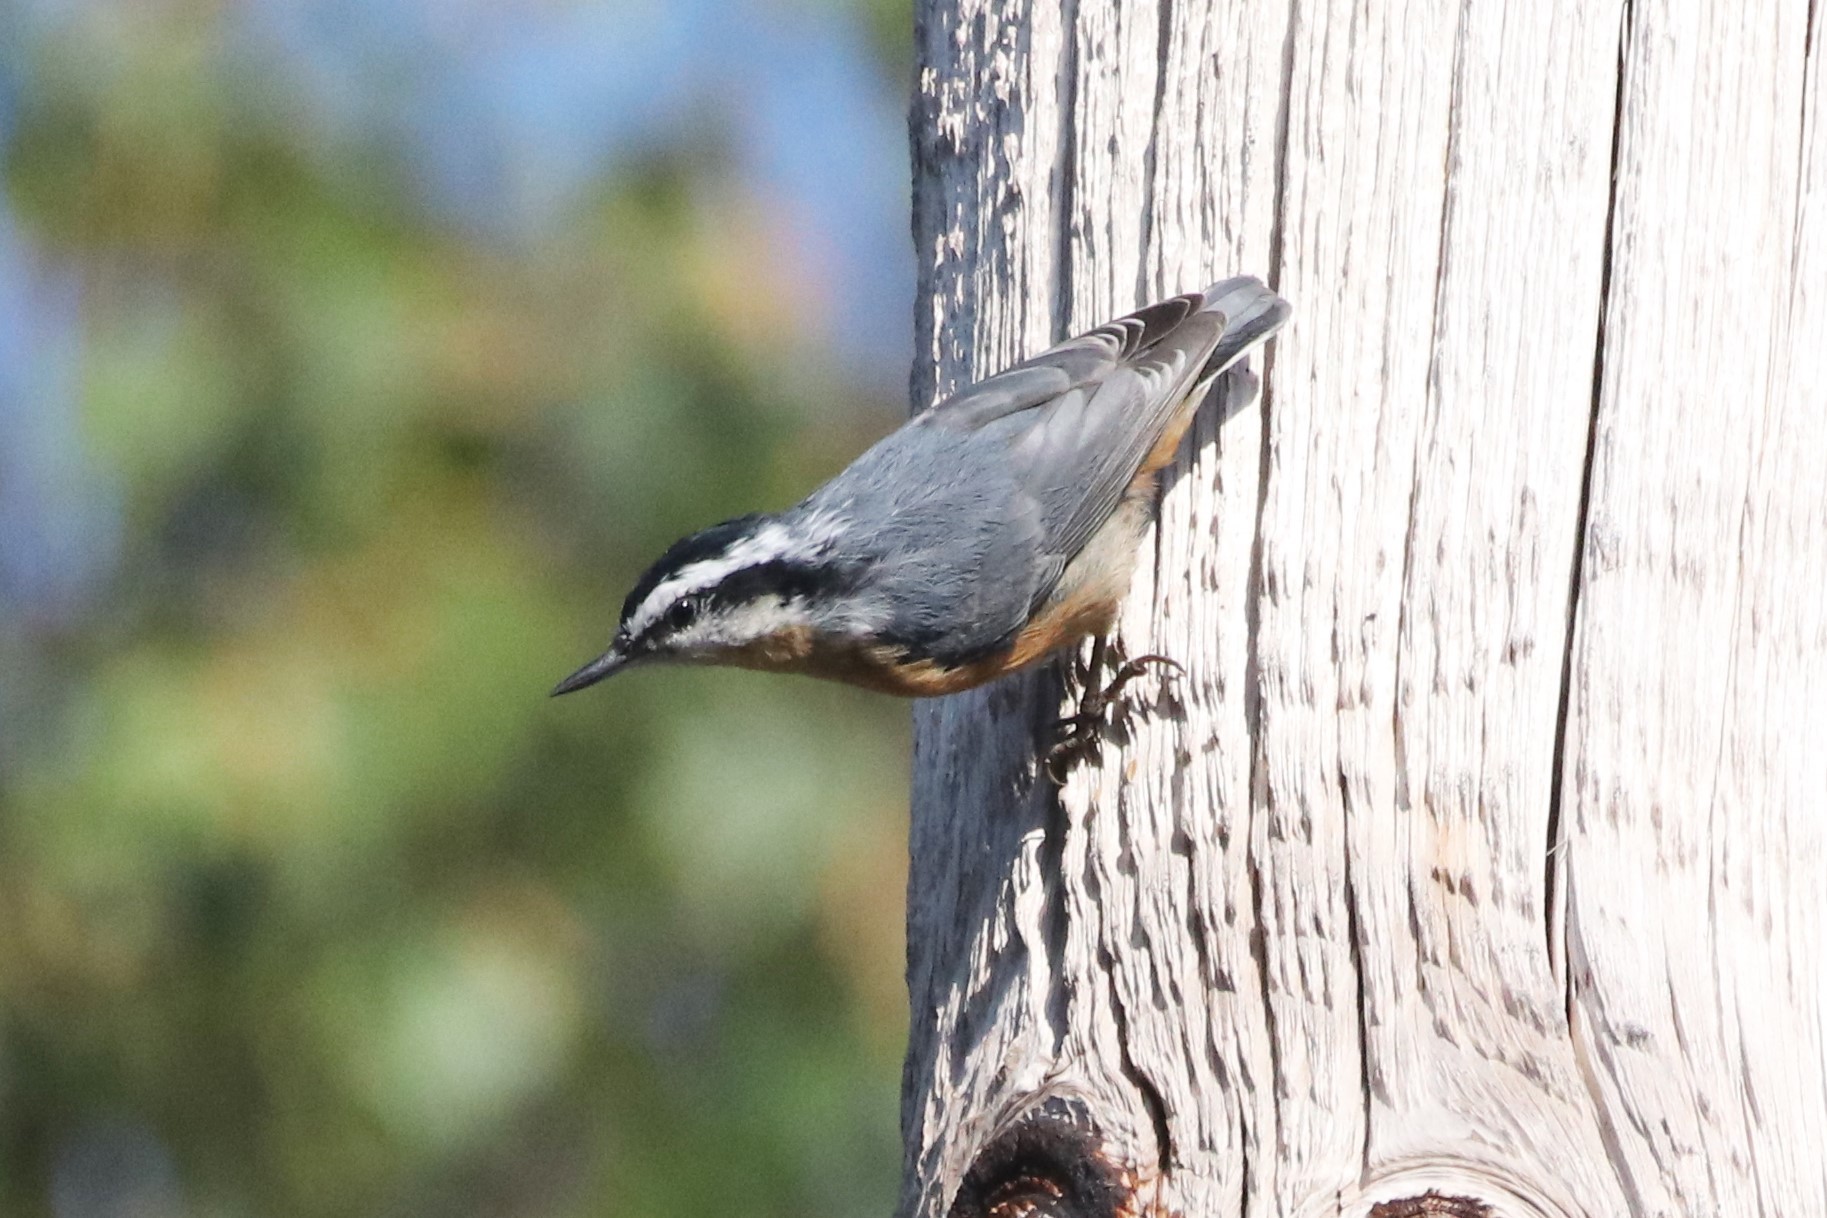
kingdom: Animalia
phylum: Chordata
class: Aves
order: Passeriformes
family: Sittidae
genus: Sitta
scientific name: Sitta canadensis
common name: Red-breasted nuthatch
